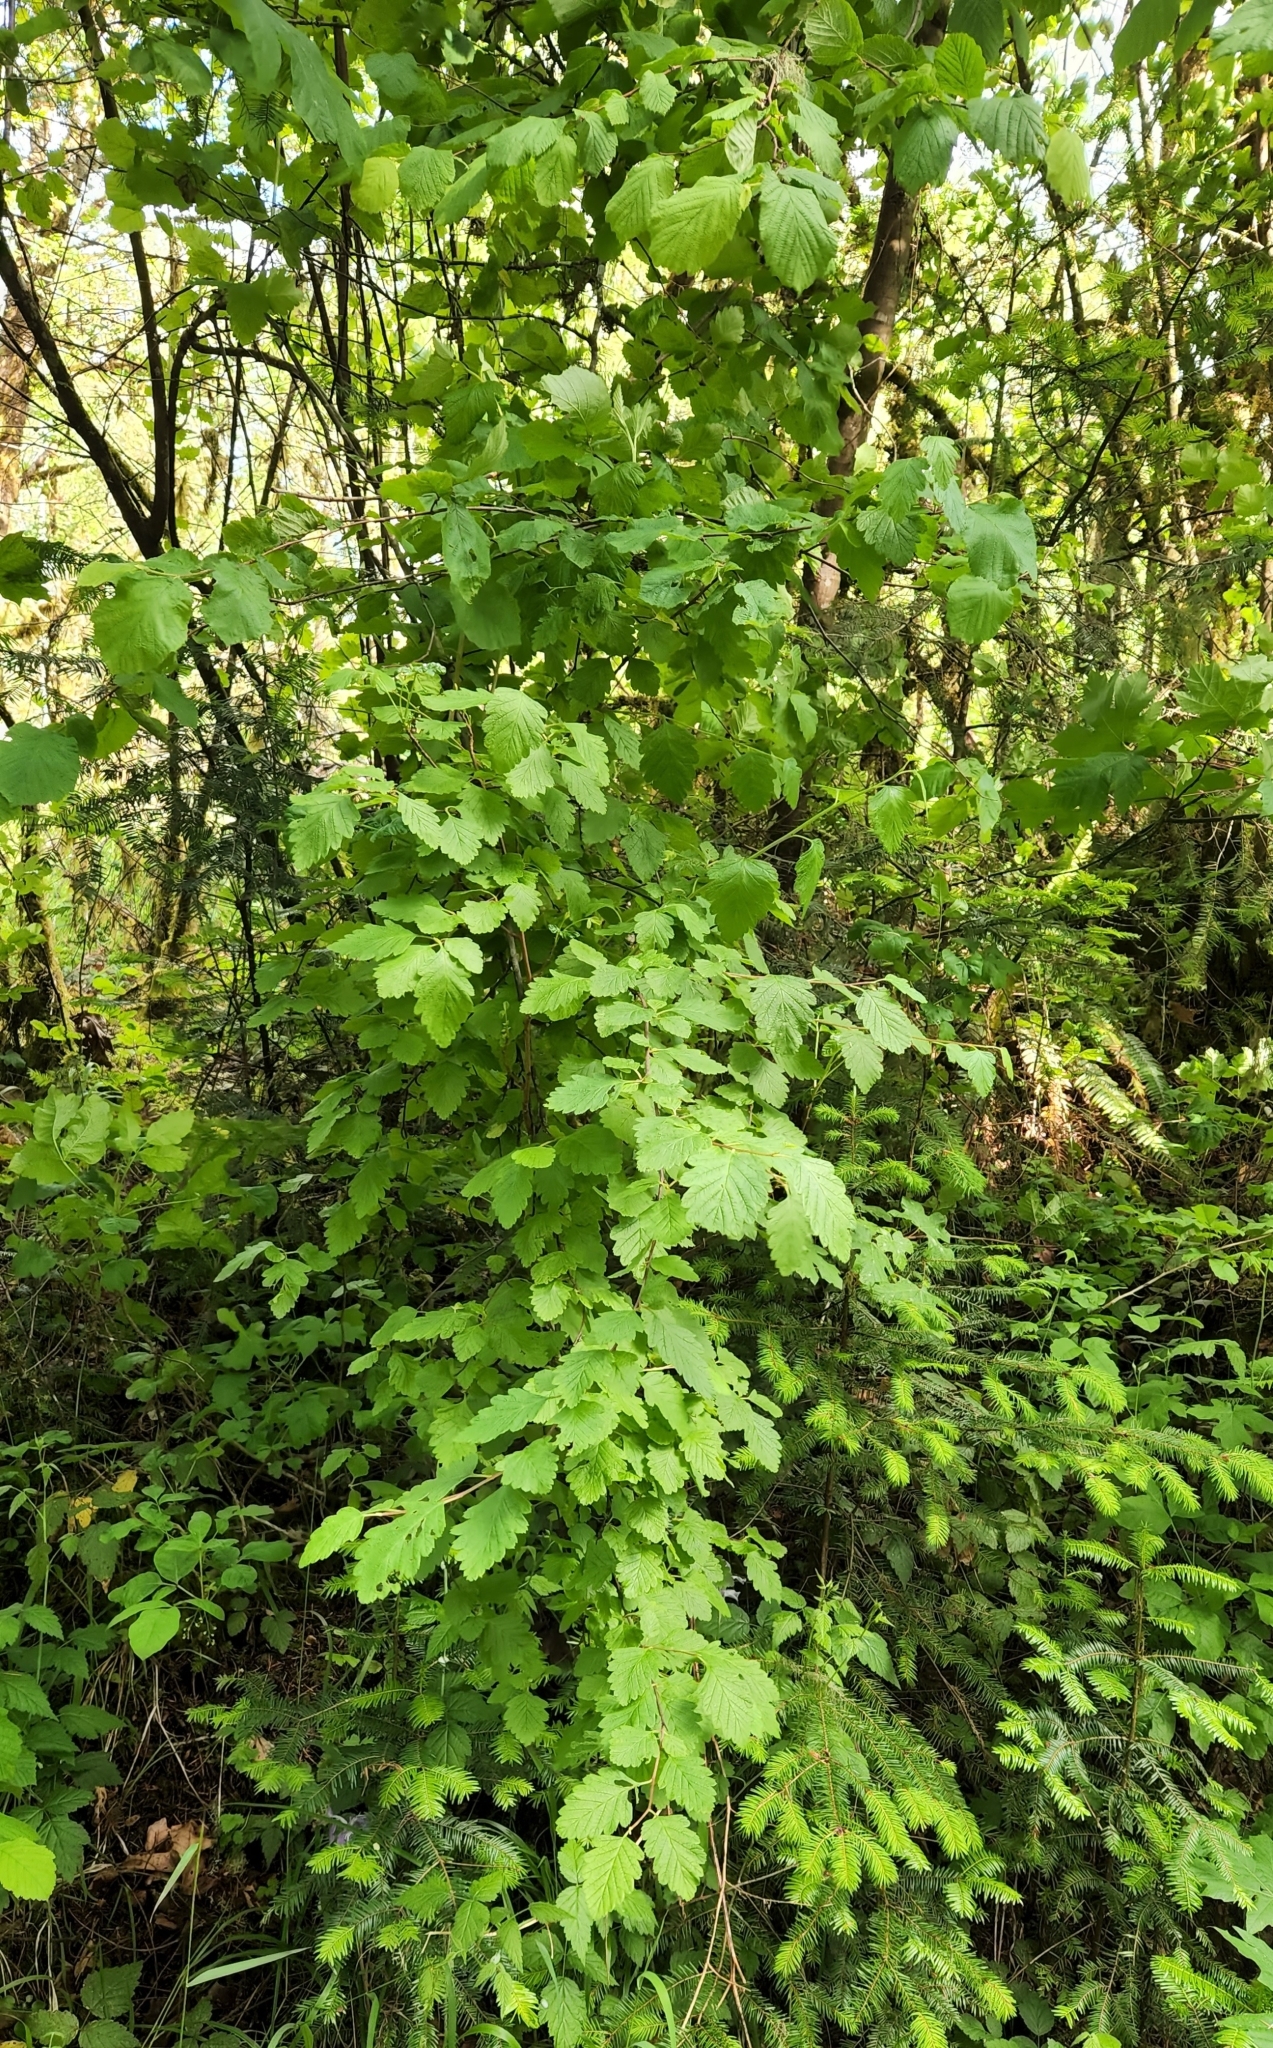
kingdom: Plantae
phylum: Tracheophyta
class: Magnoliopsida
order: Rosales
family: Rosaceae
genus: Holodiscus
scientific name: Holodiscus discolor
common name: Oceanspray
